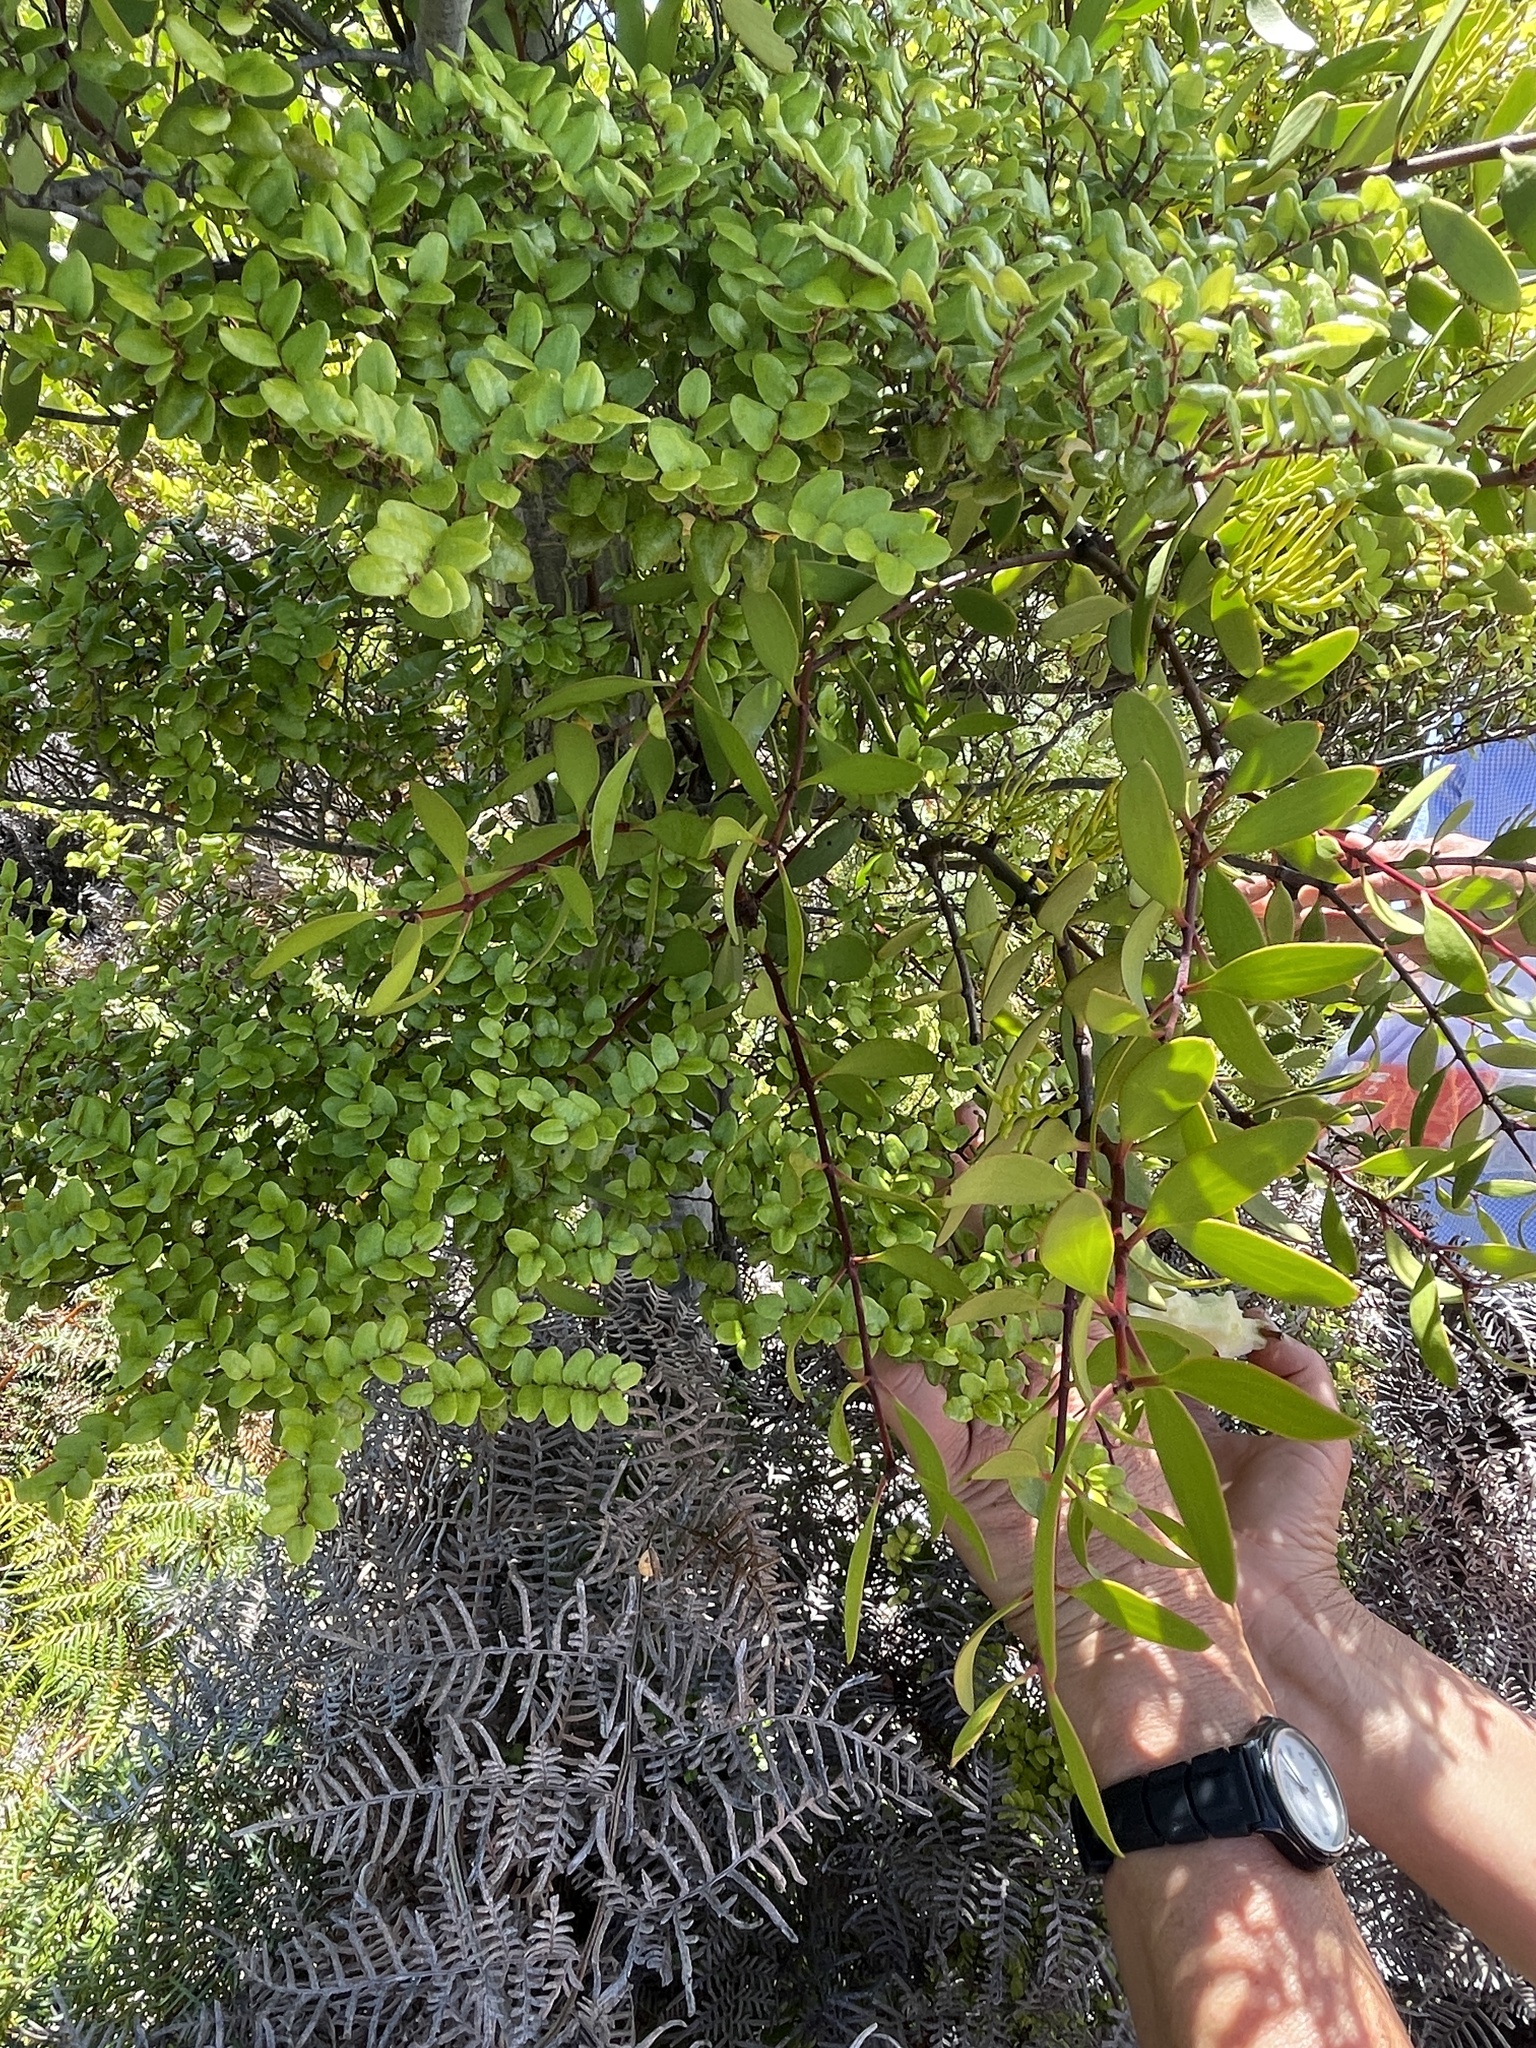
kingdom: Plantae
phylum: Tracheophyta
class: Magnoliopsida
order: Santalales
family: Loranthaceae
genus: Alepis
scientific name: Alepis flavida
